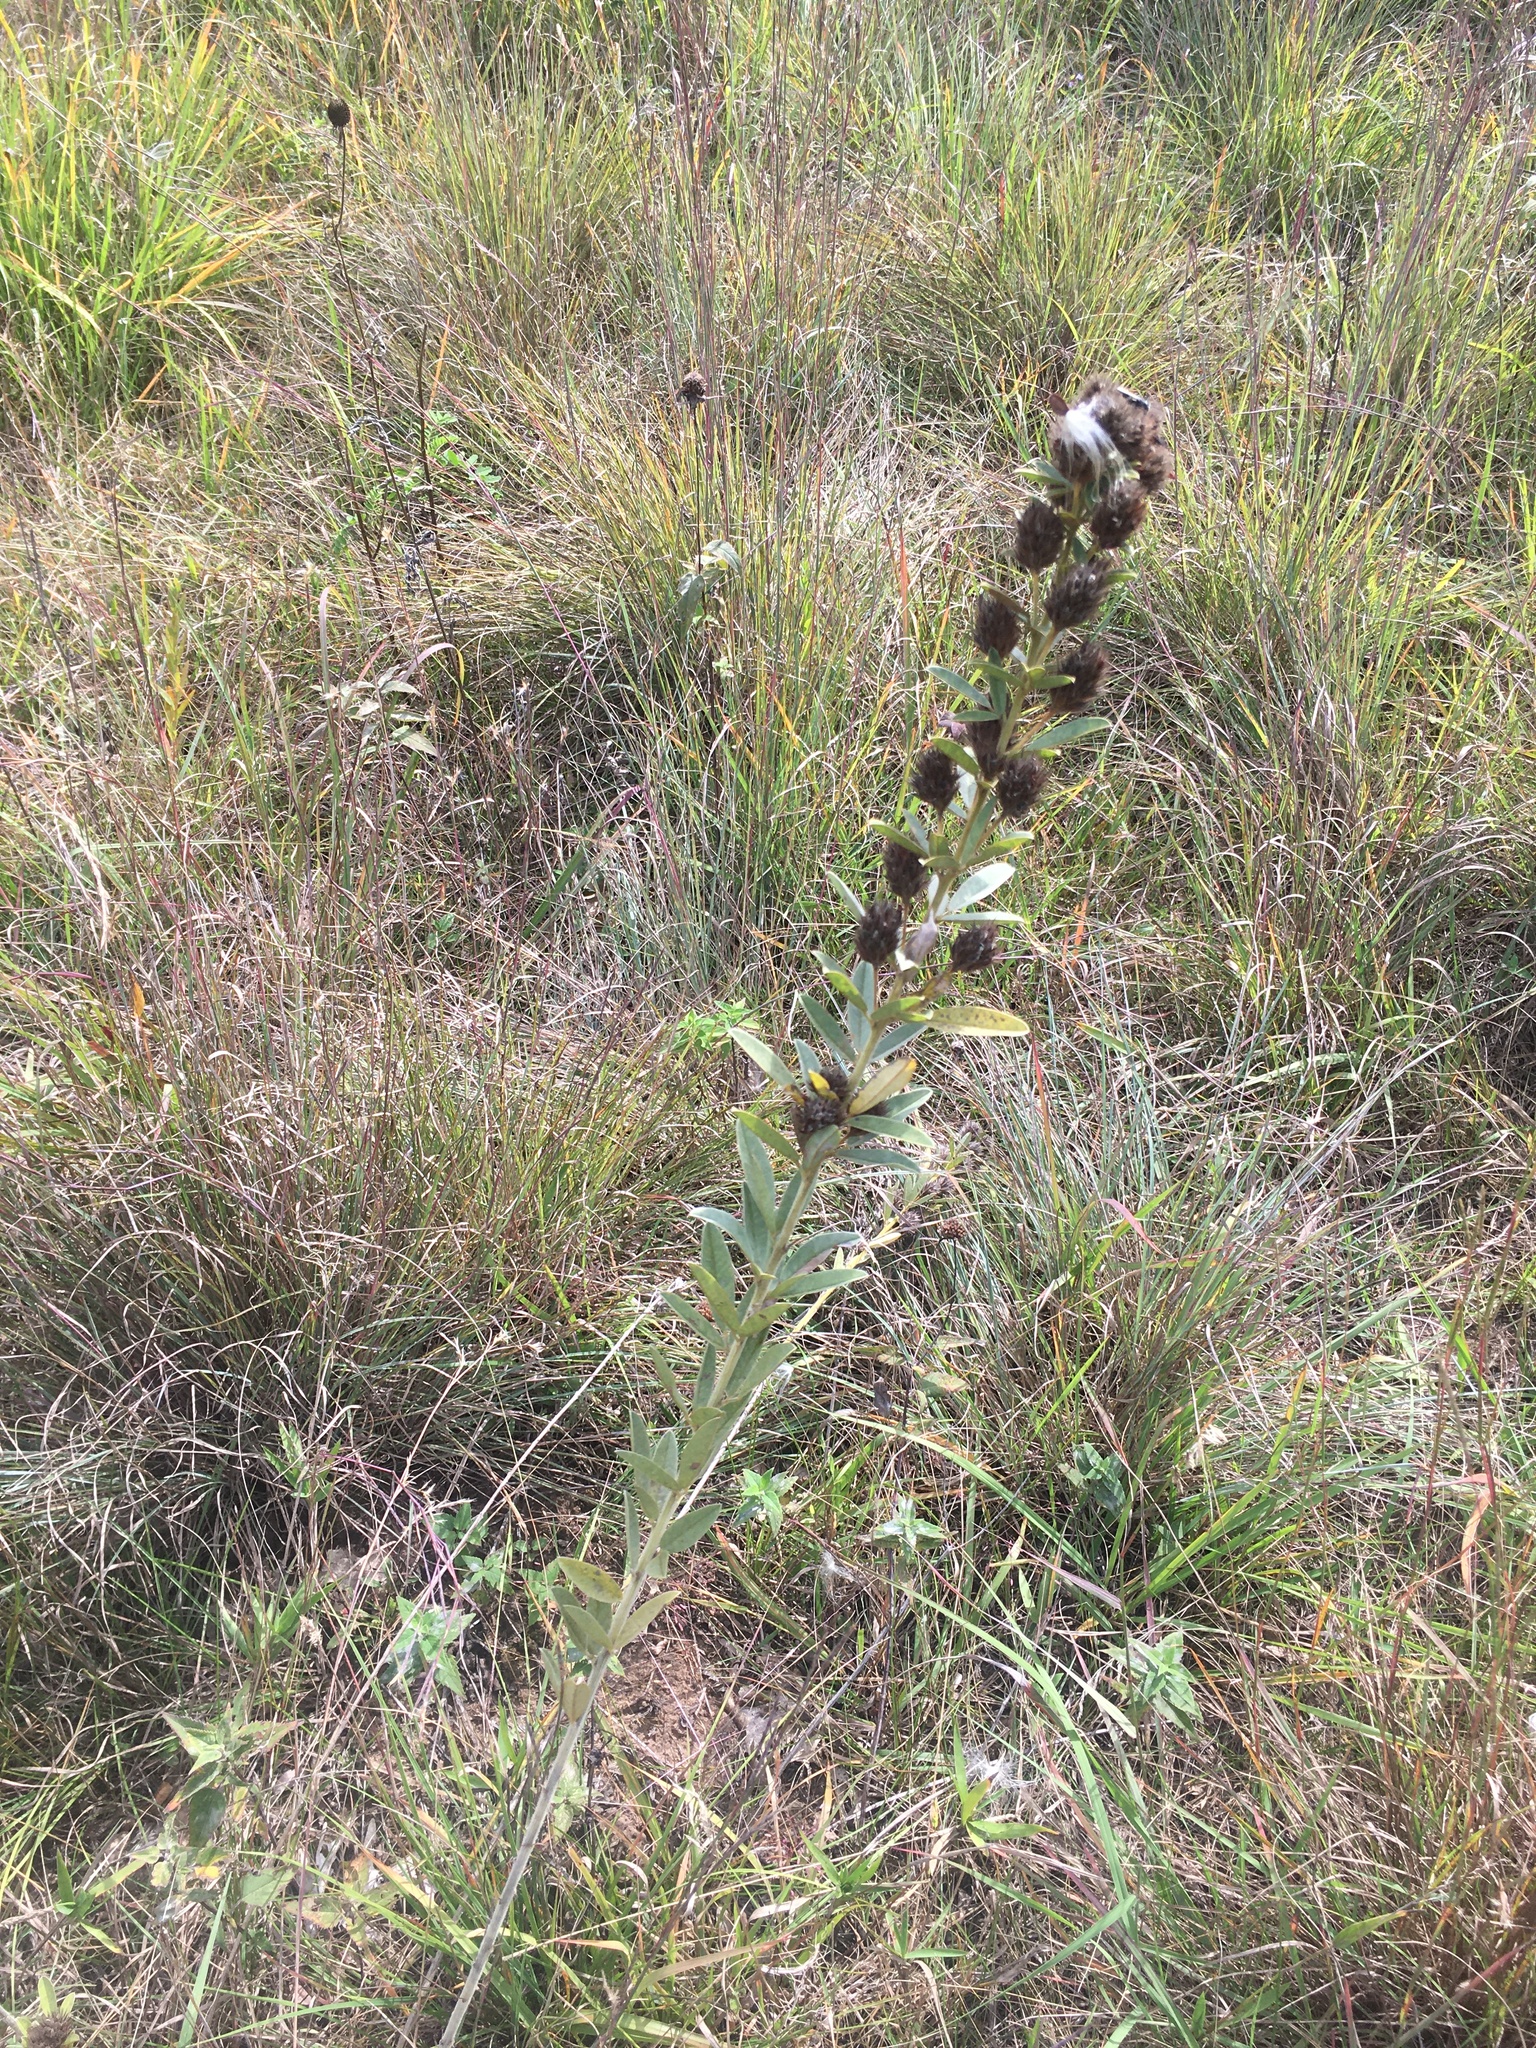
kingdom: Plantae
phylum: Tracheophyta
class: Magnoliopsida
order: Fabales
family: Fabaceae
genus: Lespedeza
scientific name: Lespedeza capitata
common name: Dusty clover
